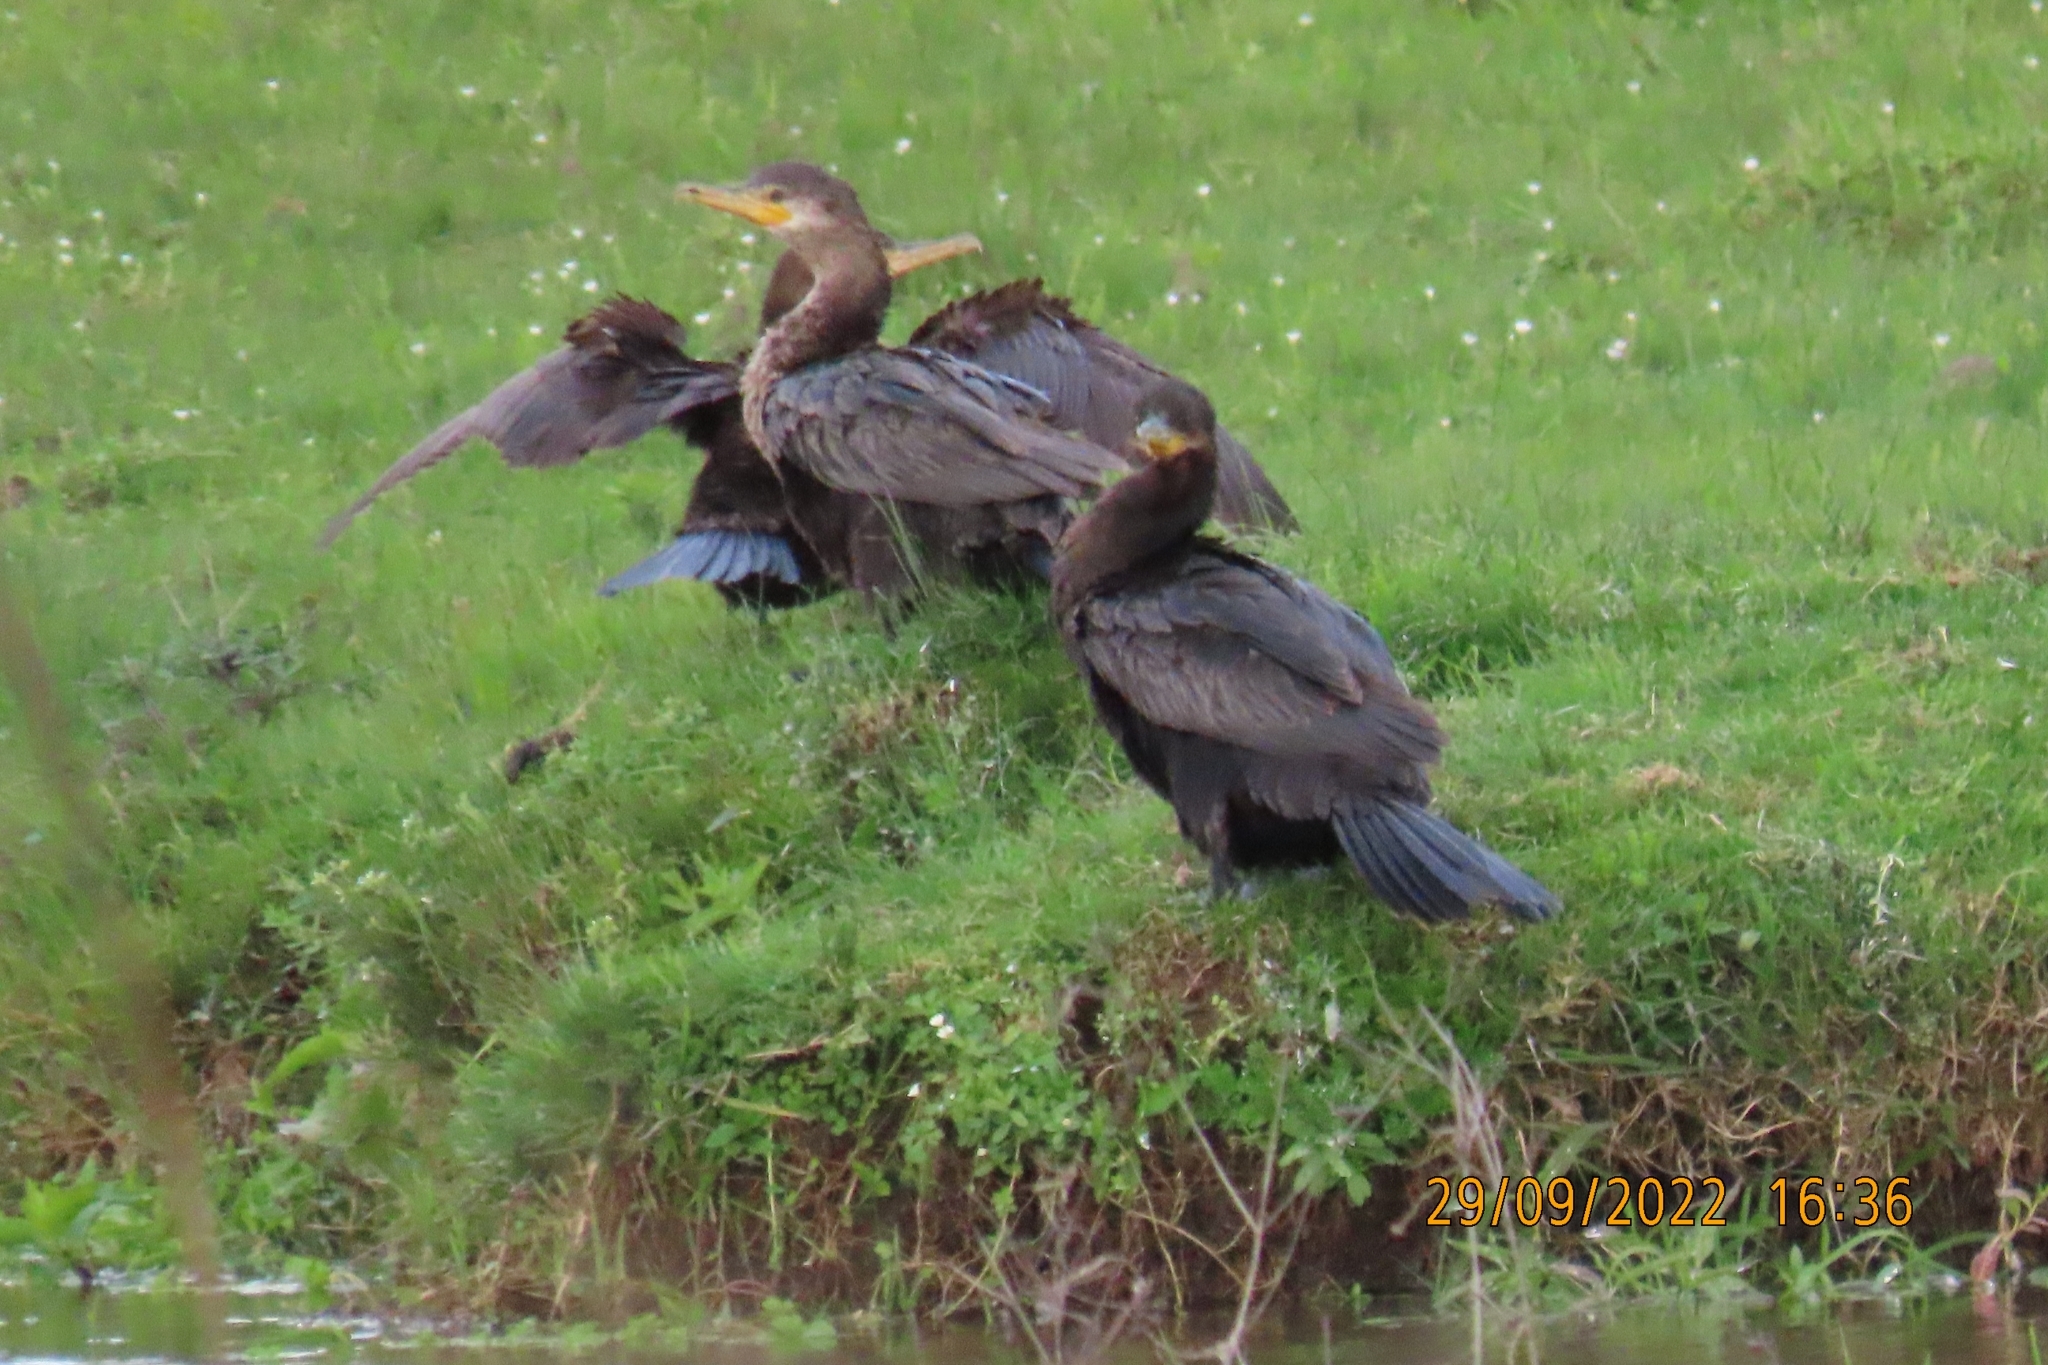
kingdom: Animalia
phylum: Chordata
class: Aves
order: Suliformes
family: Phalacrocoracidae
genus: Phalacrocorax
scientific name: Phalacrocorax brasilianus
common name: Neotropic cormorant
